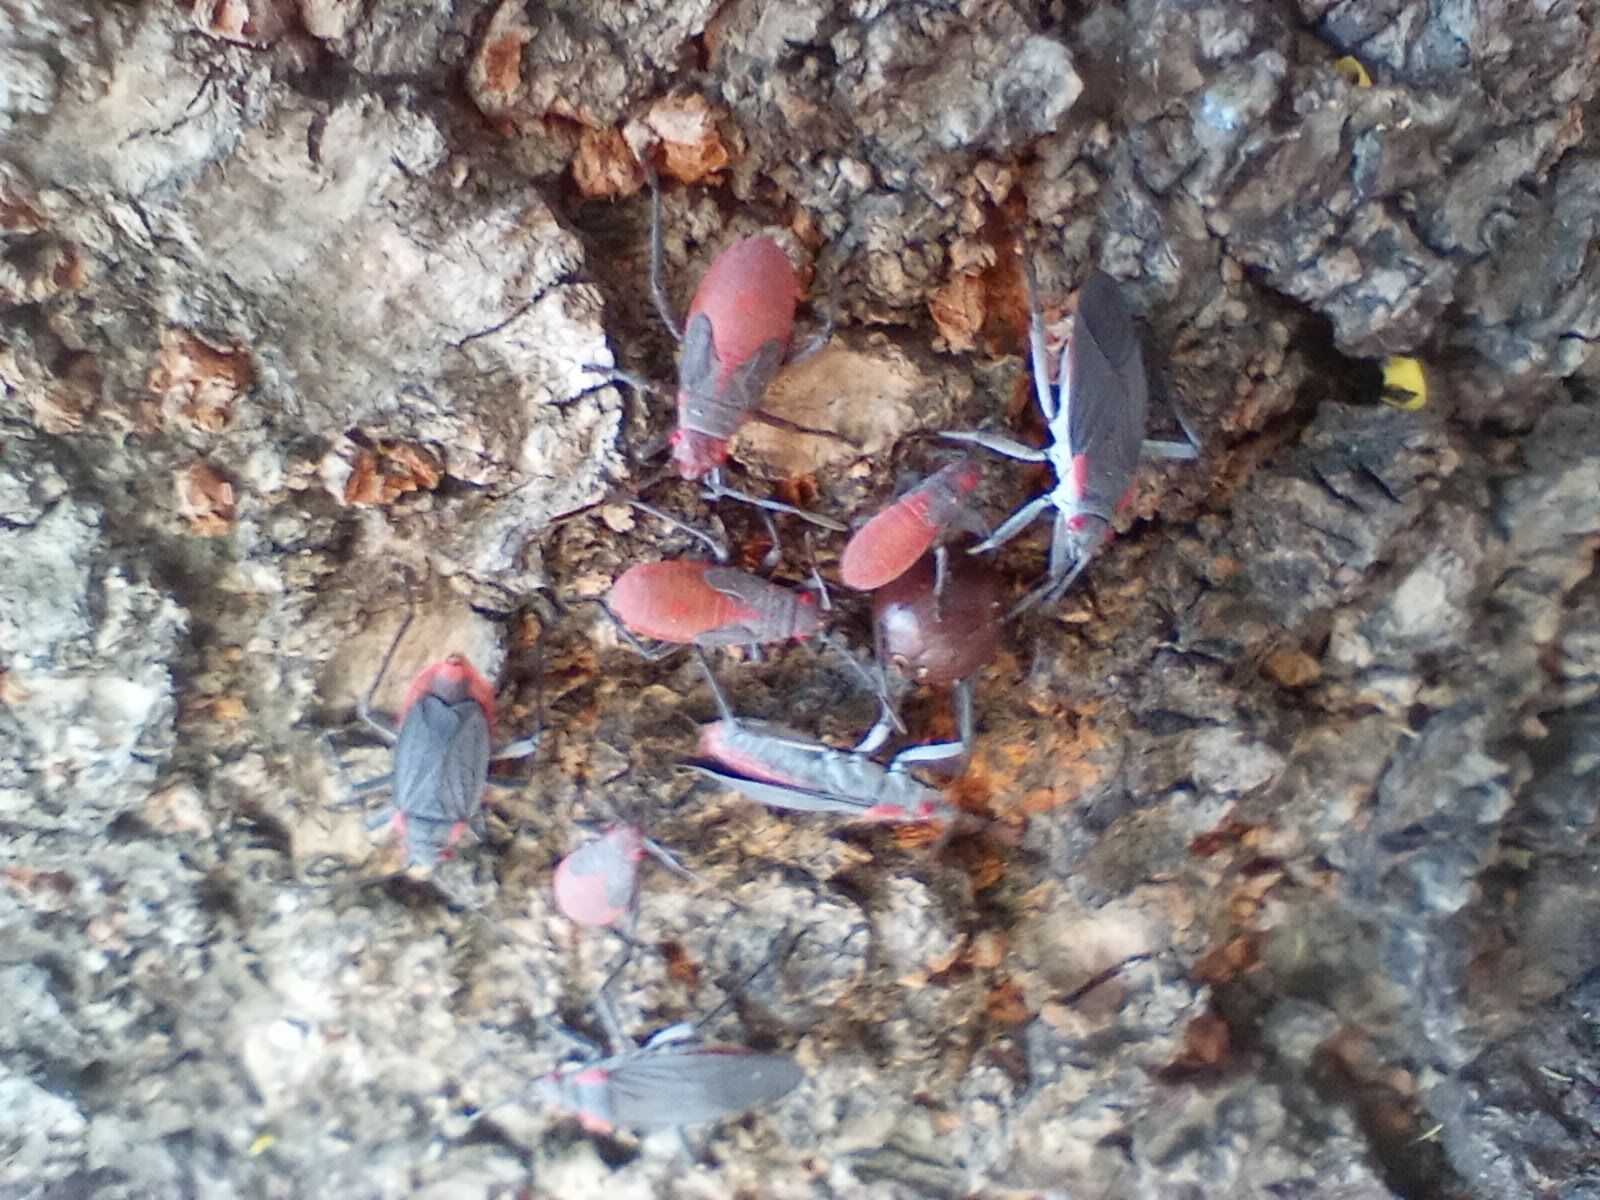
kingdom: Animalia
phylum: Arthropoda
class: Insecta
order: Hemiptera
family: Rhopalidae
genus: Jadera
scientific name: Jadera haematoloma
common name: Red-shouldered bug
